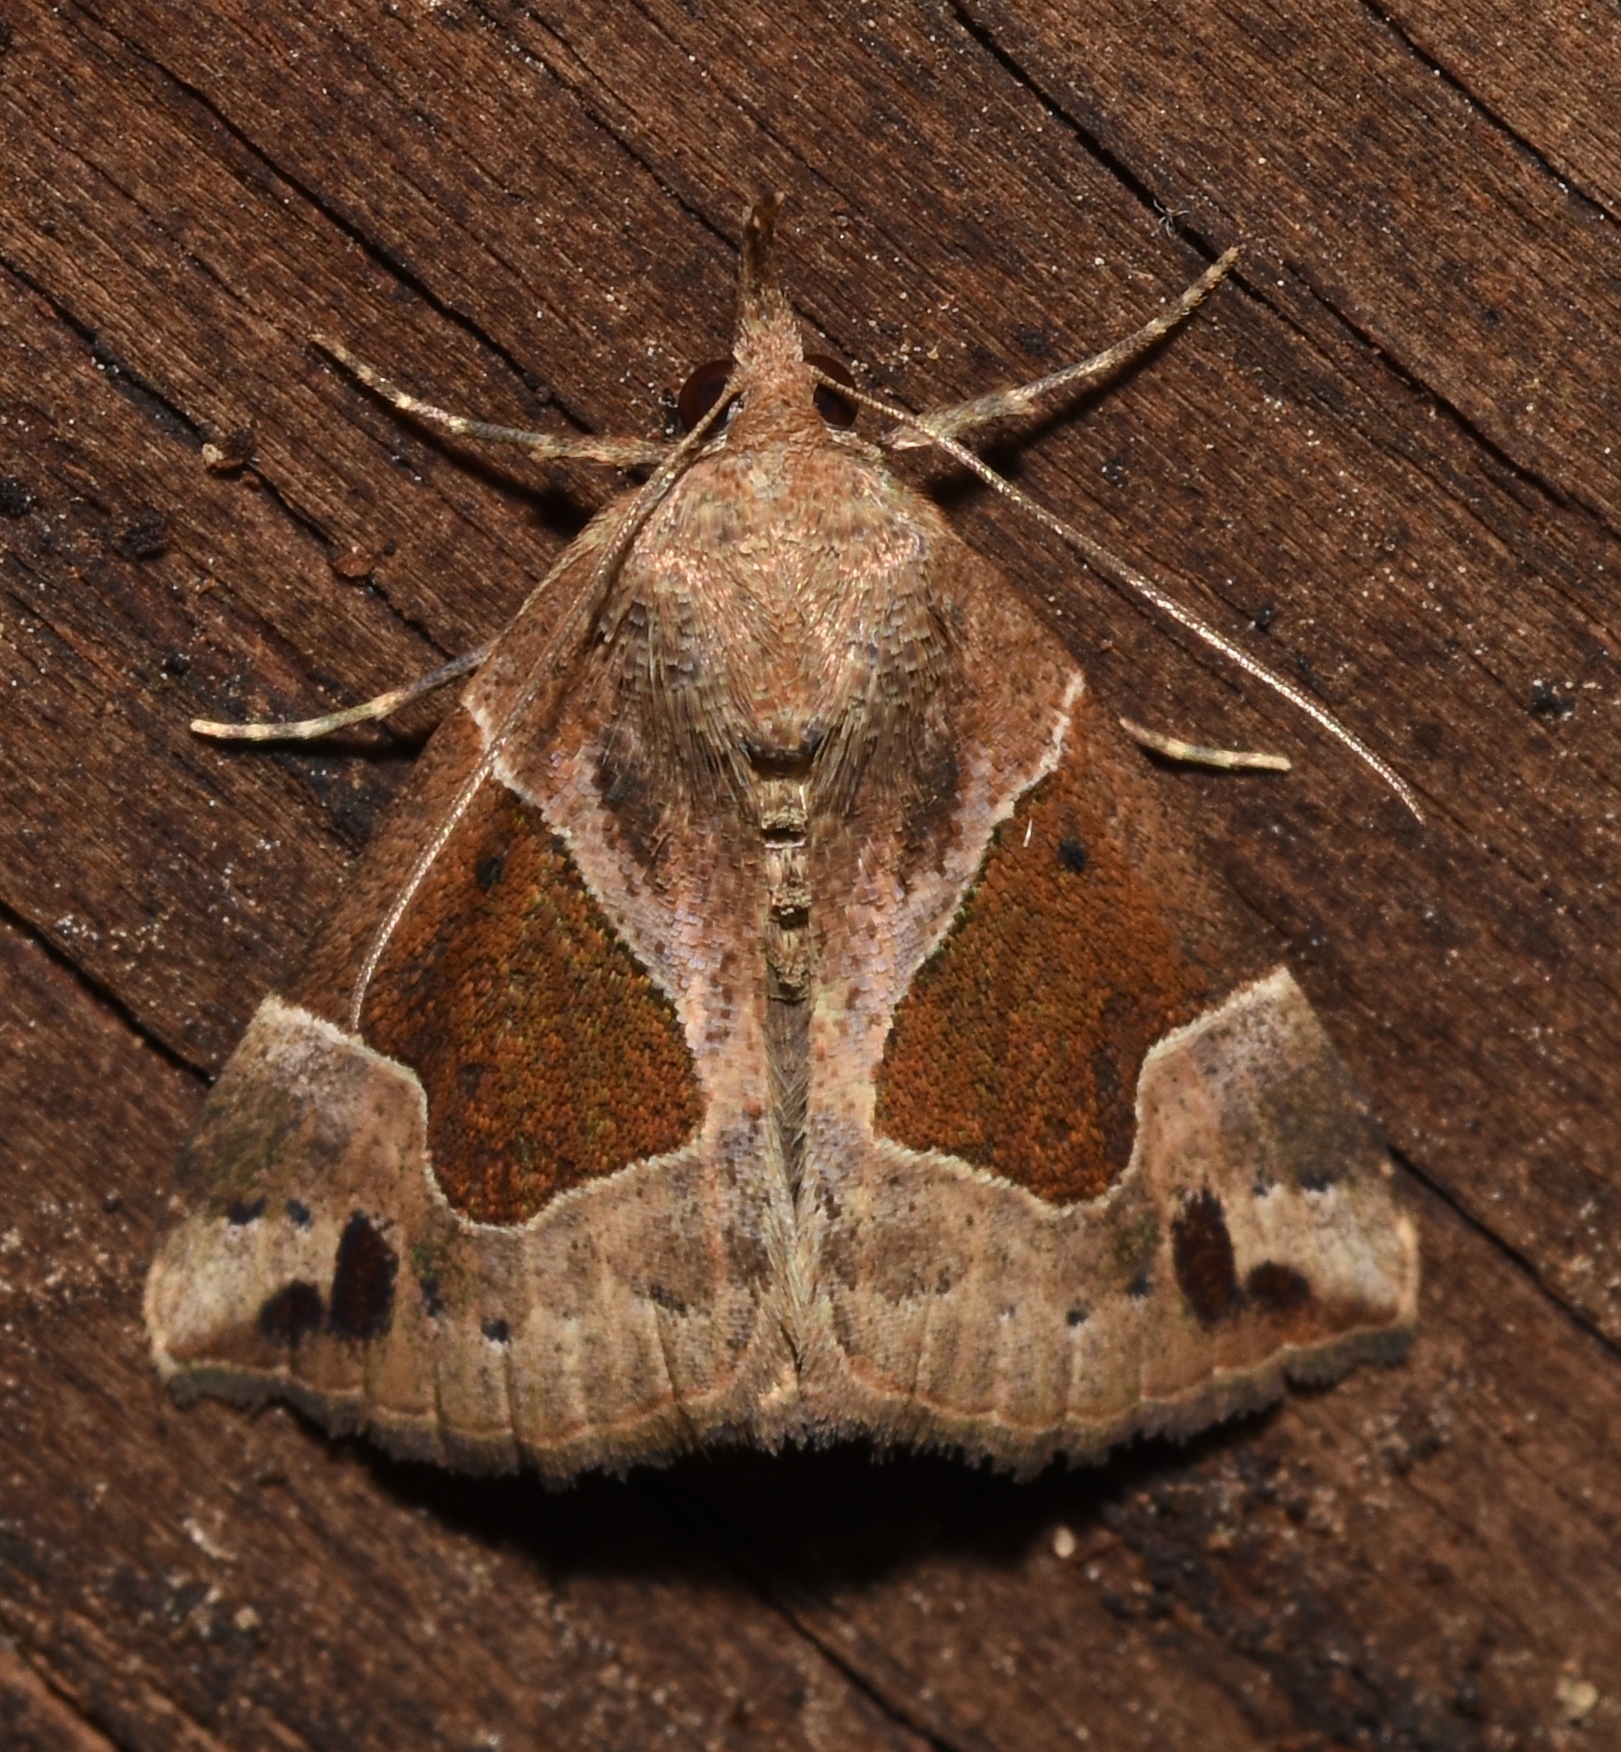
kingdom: Animalia
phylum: Arthropoda
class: Insecta
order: Lepidoptera
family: Erebidae
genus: Hypena
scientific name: Hypena manalis
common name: Flowing-line bomolocha moth
